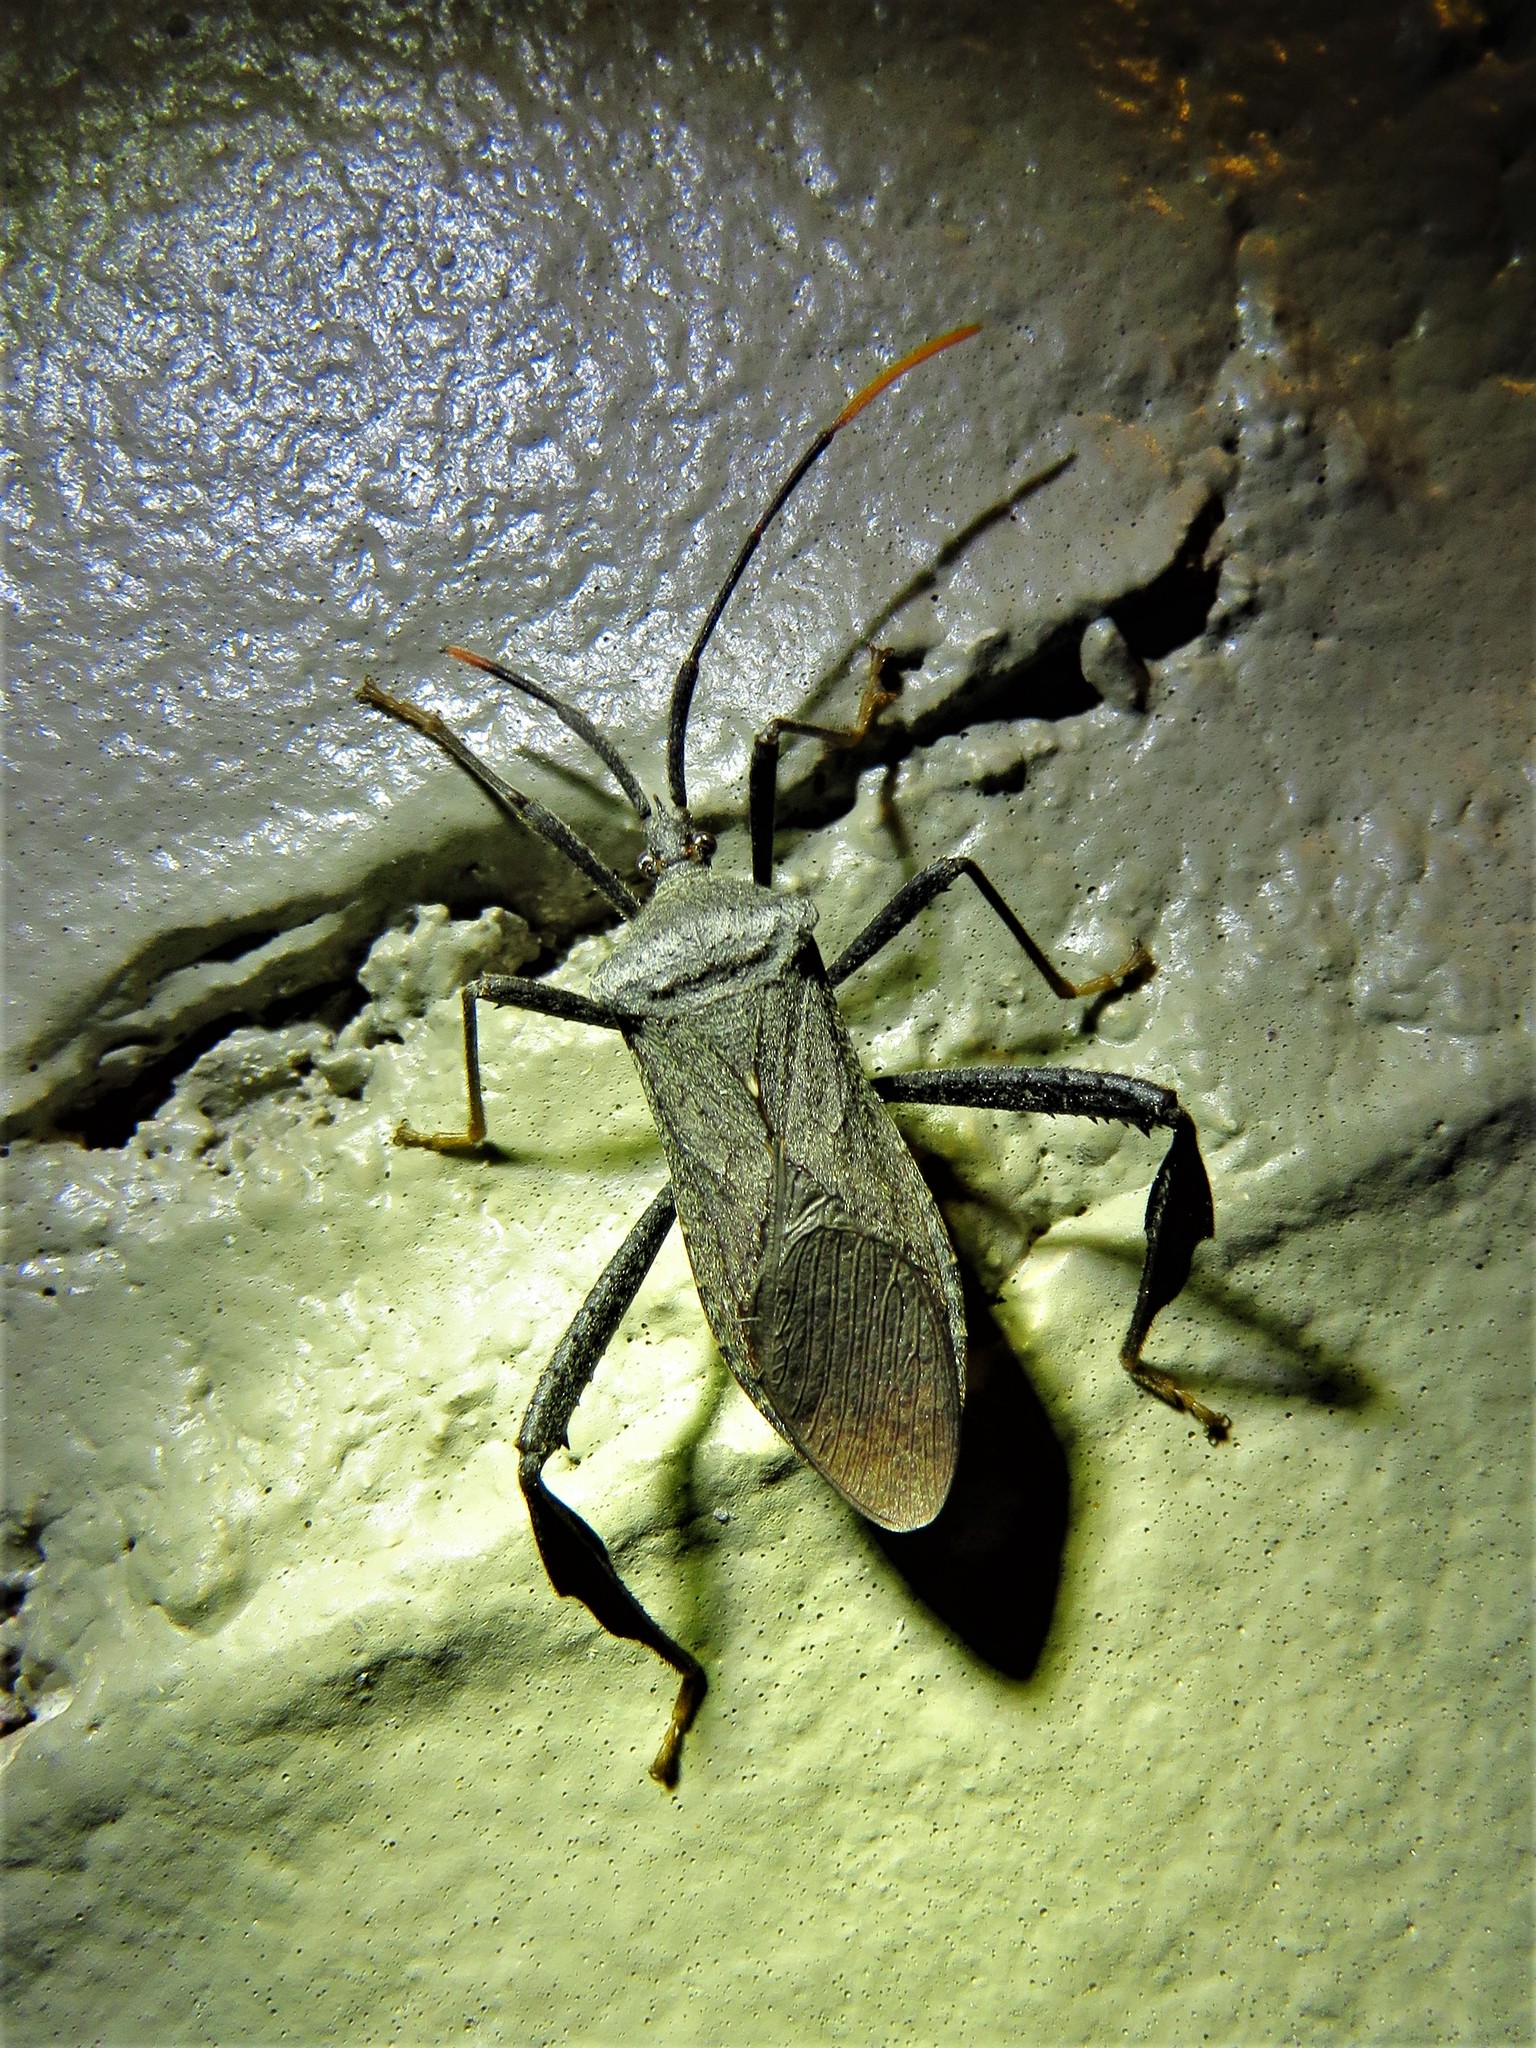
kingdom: Animalia
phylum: Arthropoda
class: Insecta
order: Hemiptera
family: Coreidae
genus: Acanthocephala
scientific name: Acanthocephala terminalis
